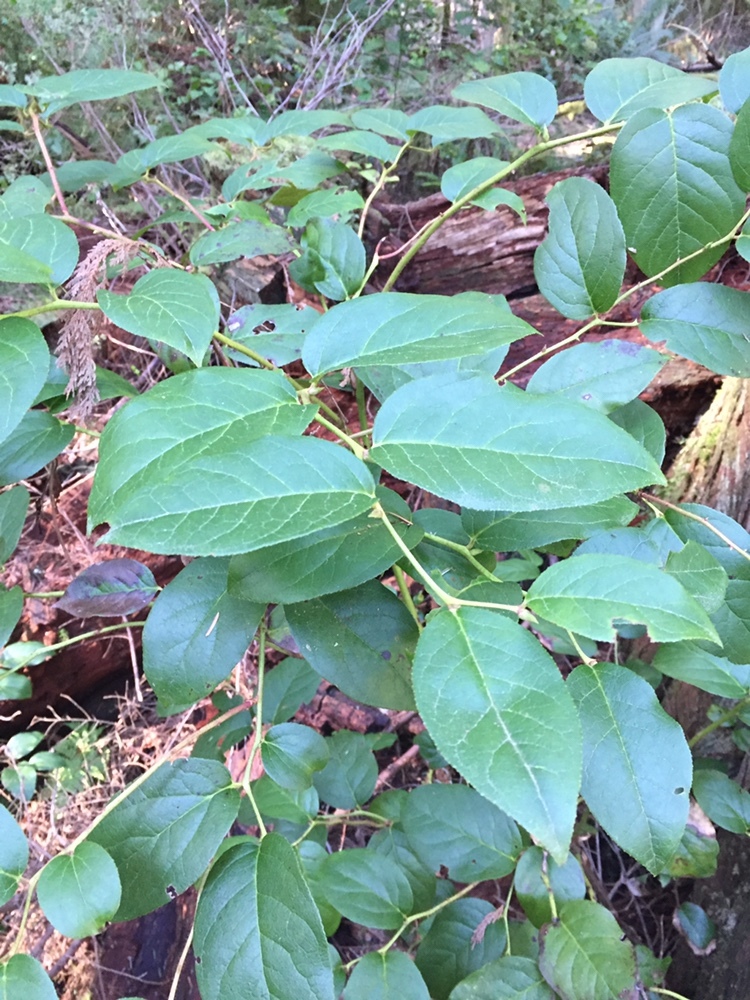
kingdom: Plantae
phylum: Tracheophyta
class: Magnoliopsida
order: Ericales
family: Ericaceae
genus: Gaultheria
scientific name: Gaultheria shallon
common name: Shallon
